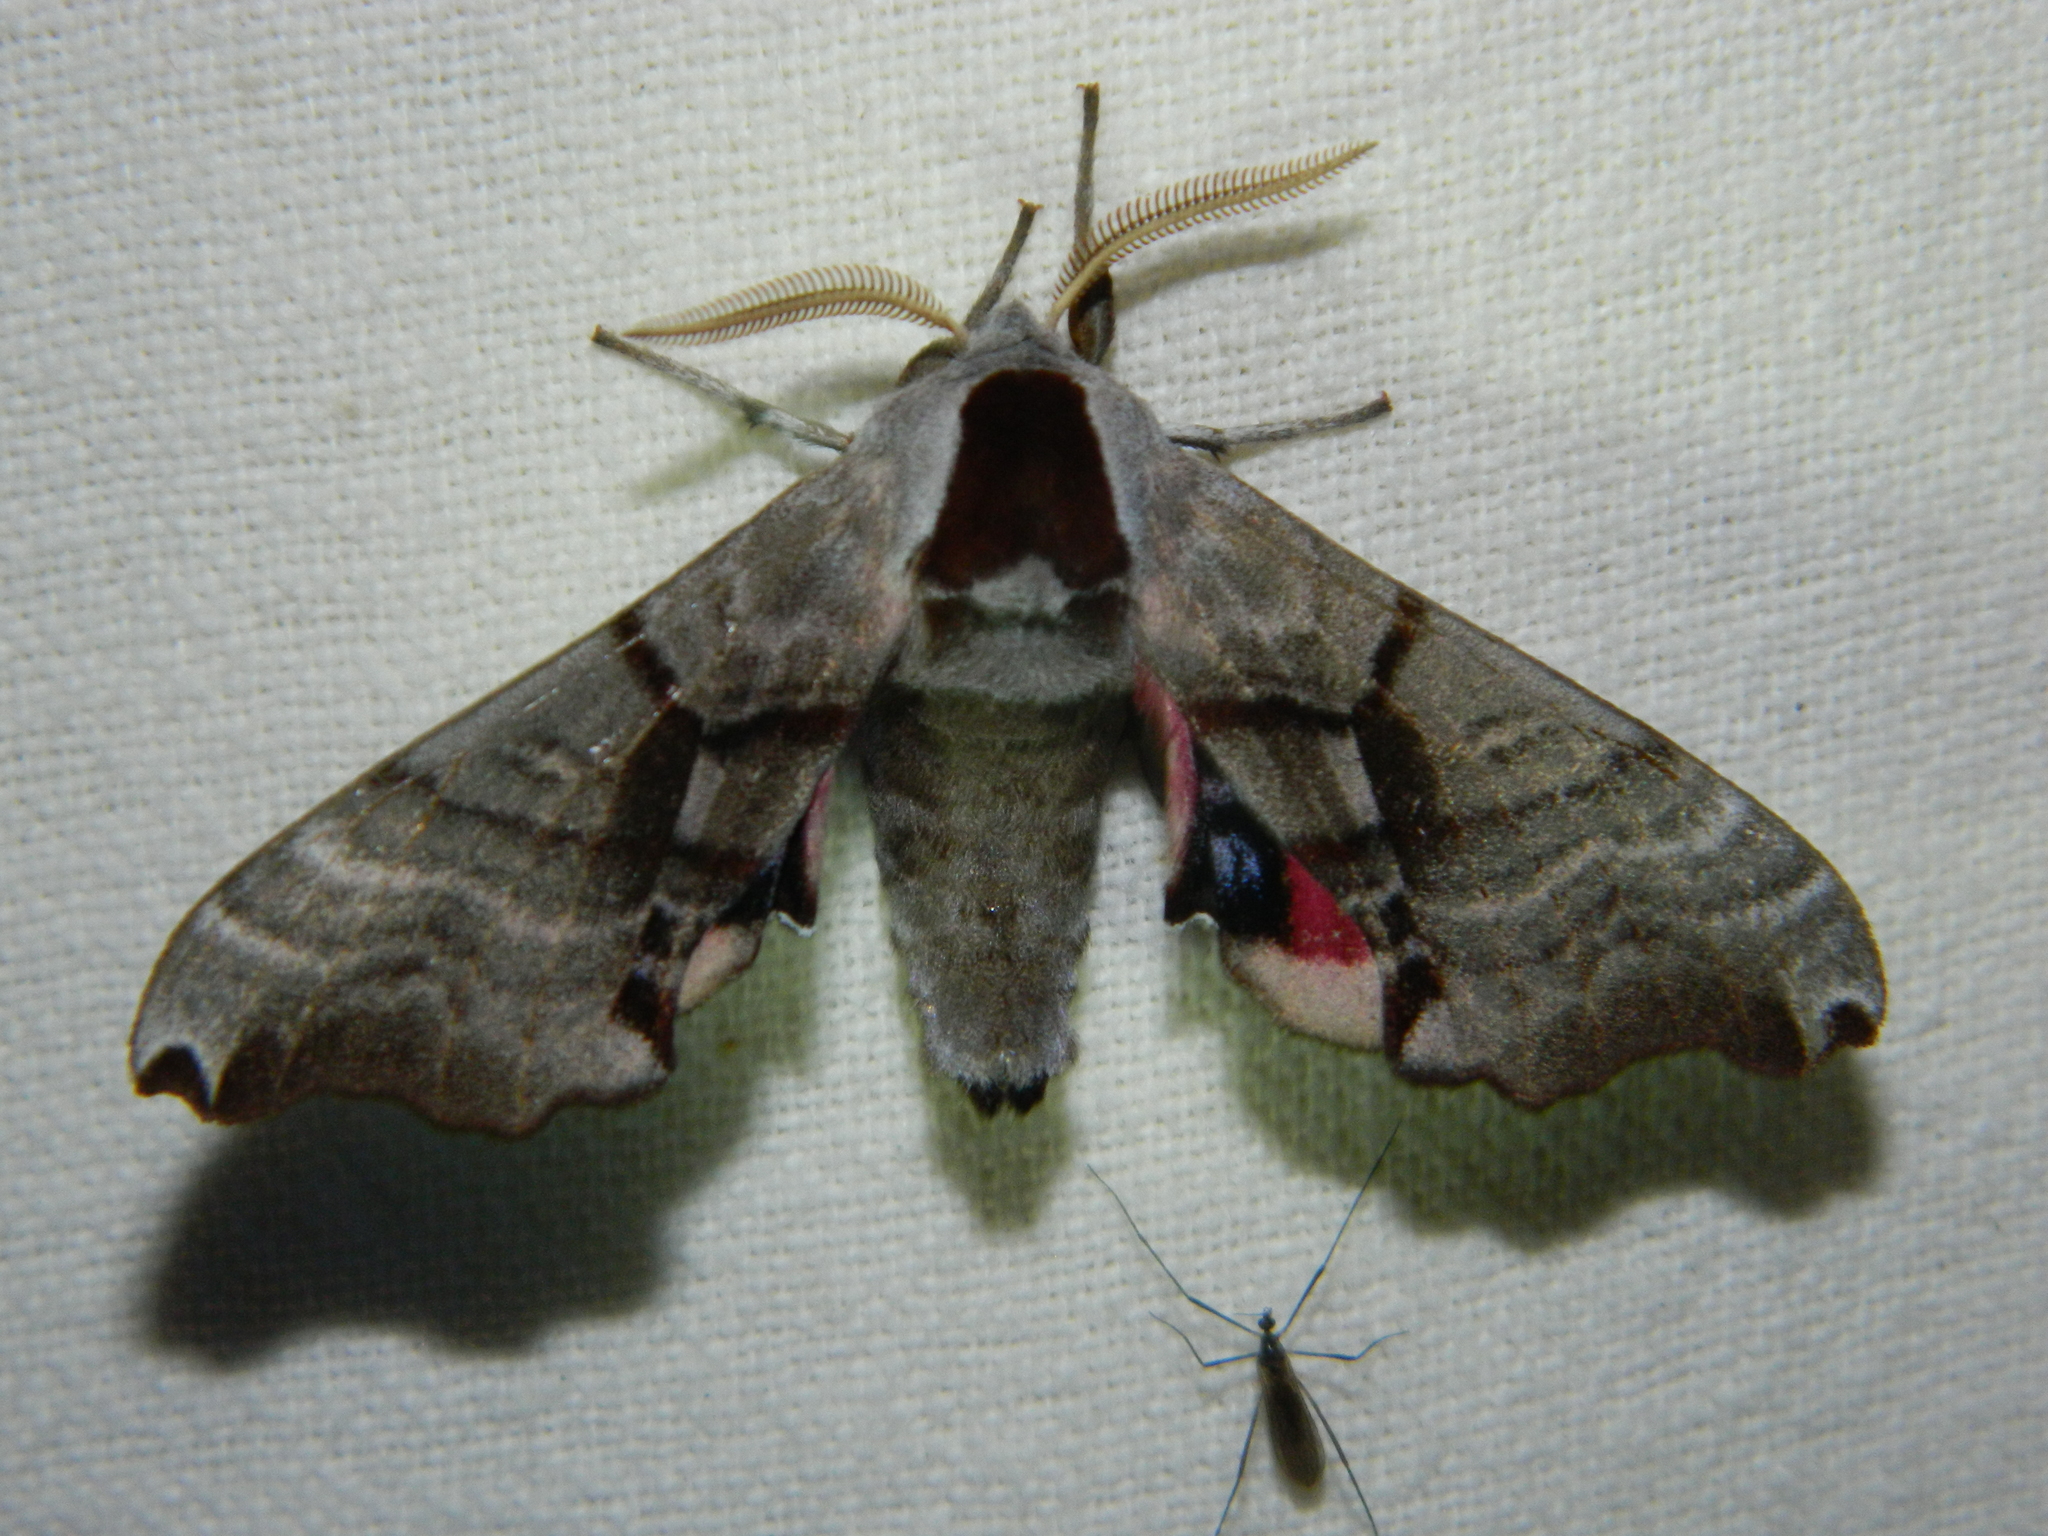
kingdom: Animalia
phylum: Arthropoda
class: Insecta
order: Lepidoptera
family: Sphingidae
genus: Smerinthus
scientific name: Smerinthus jamaicensis
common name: Twin spotted sphinx
